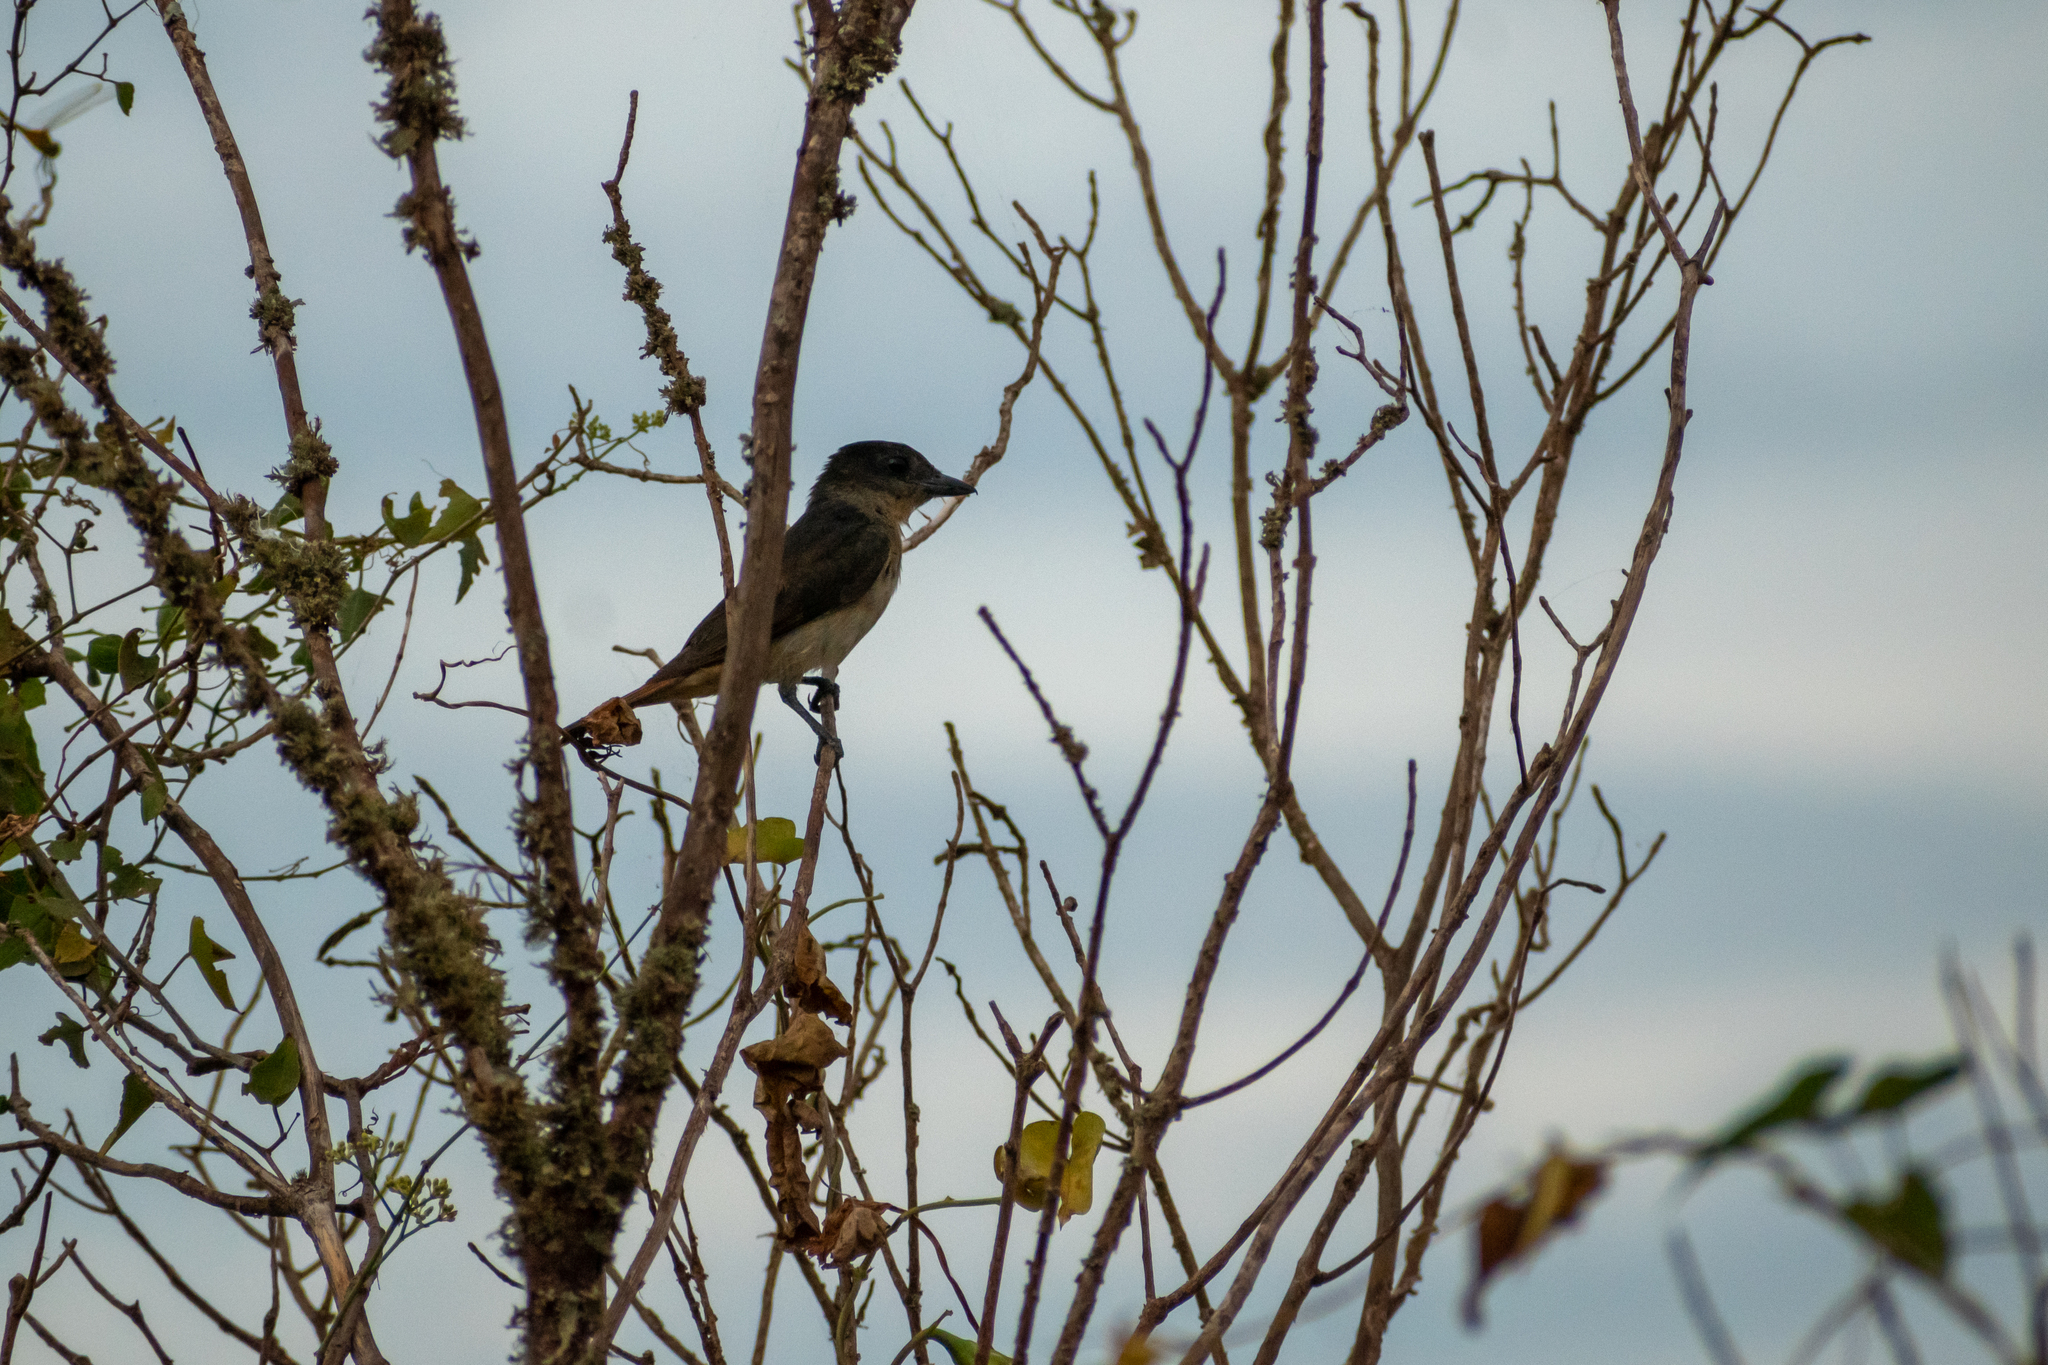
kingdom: Animalia
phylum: Chordata
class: Aves
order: Passeriformes
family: Cotingidae
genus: Pachyramphus
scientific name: Pachyramphus validus
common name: Crested becard
